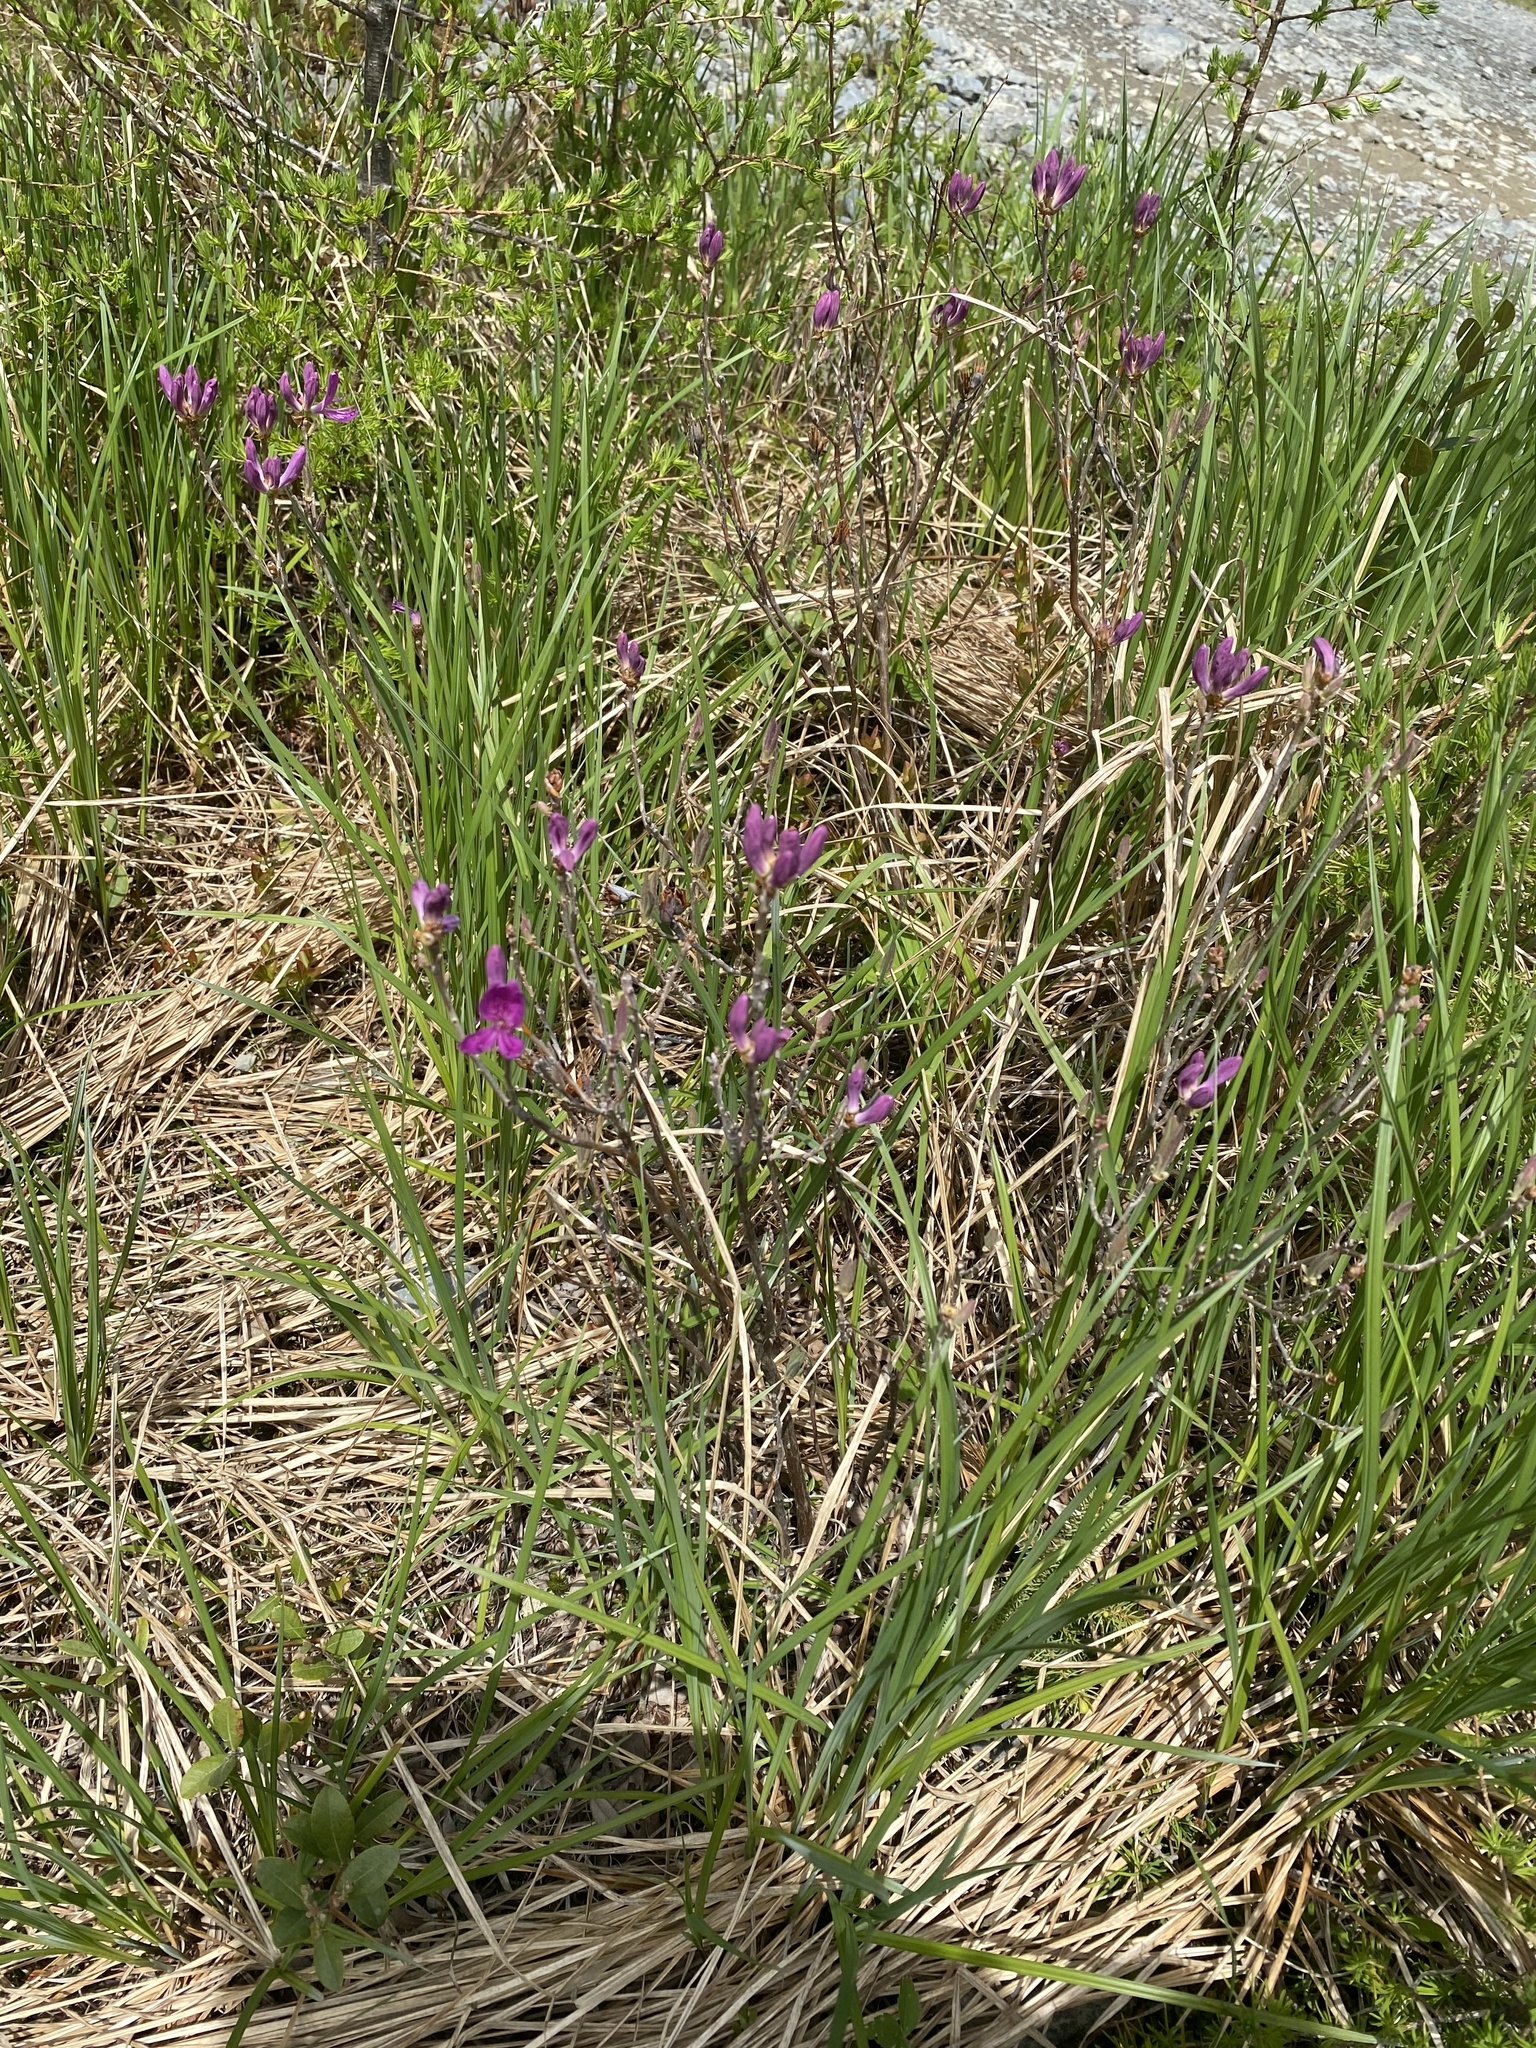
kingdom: Plantae
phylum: Tracheophyta
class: Magnoliopsida
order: Ericales
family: Ericaceae
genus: Rhododendron
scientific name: Rhododendron canadense
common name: Rhodora
